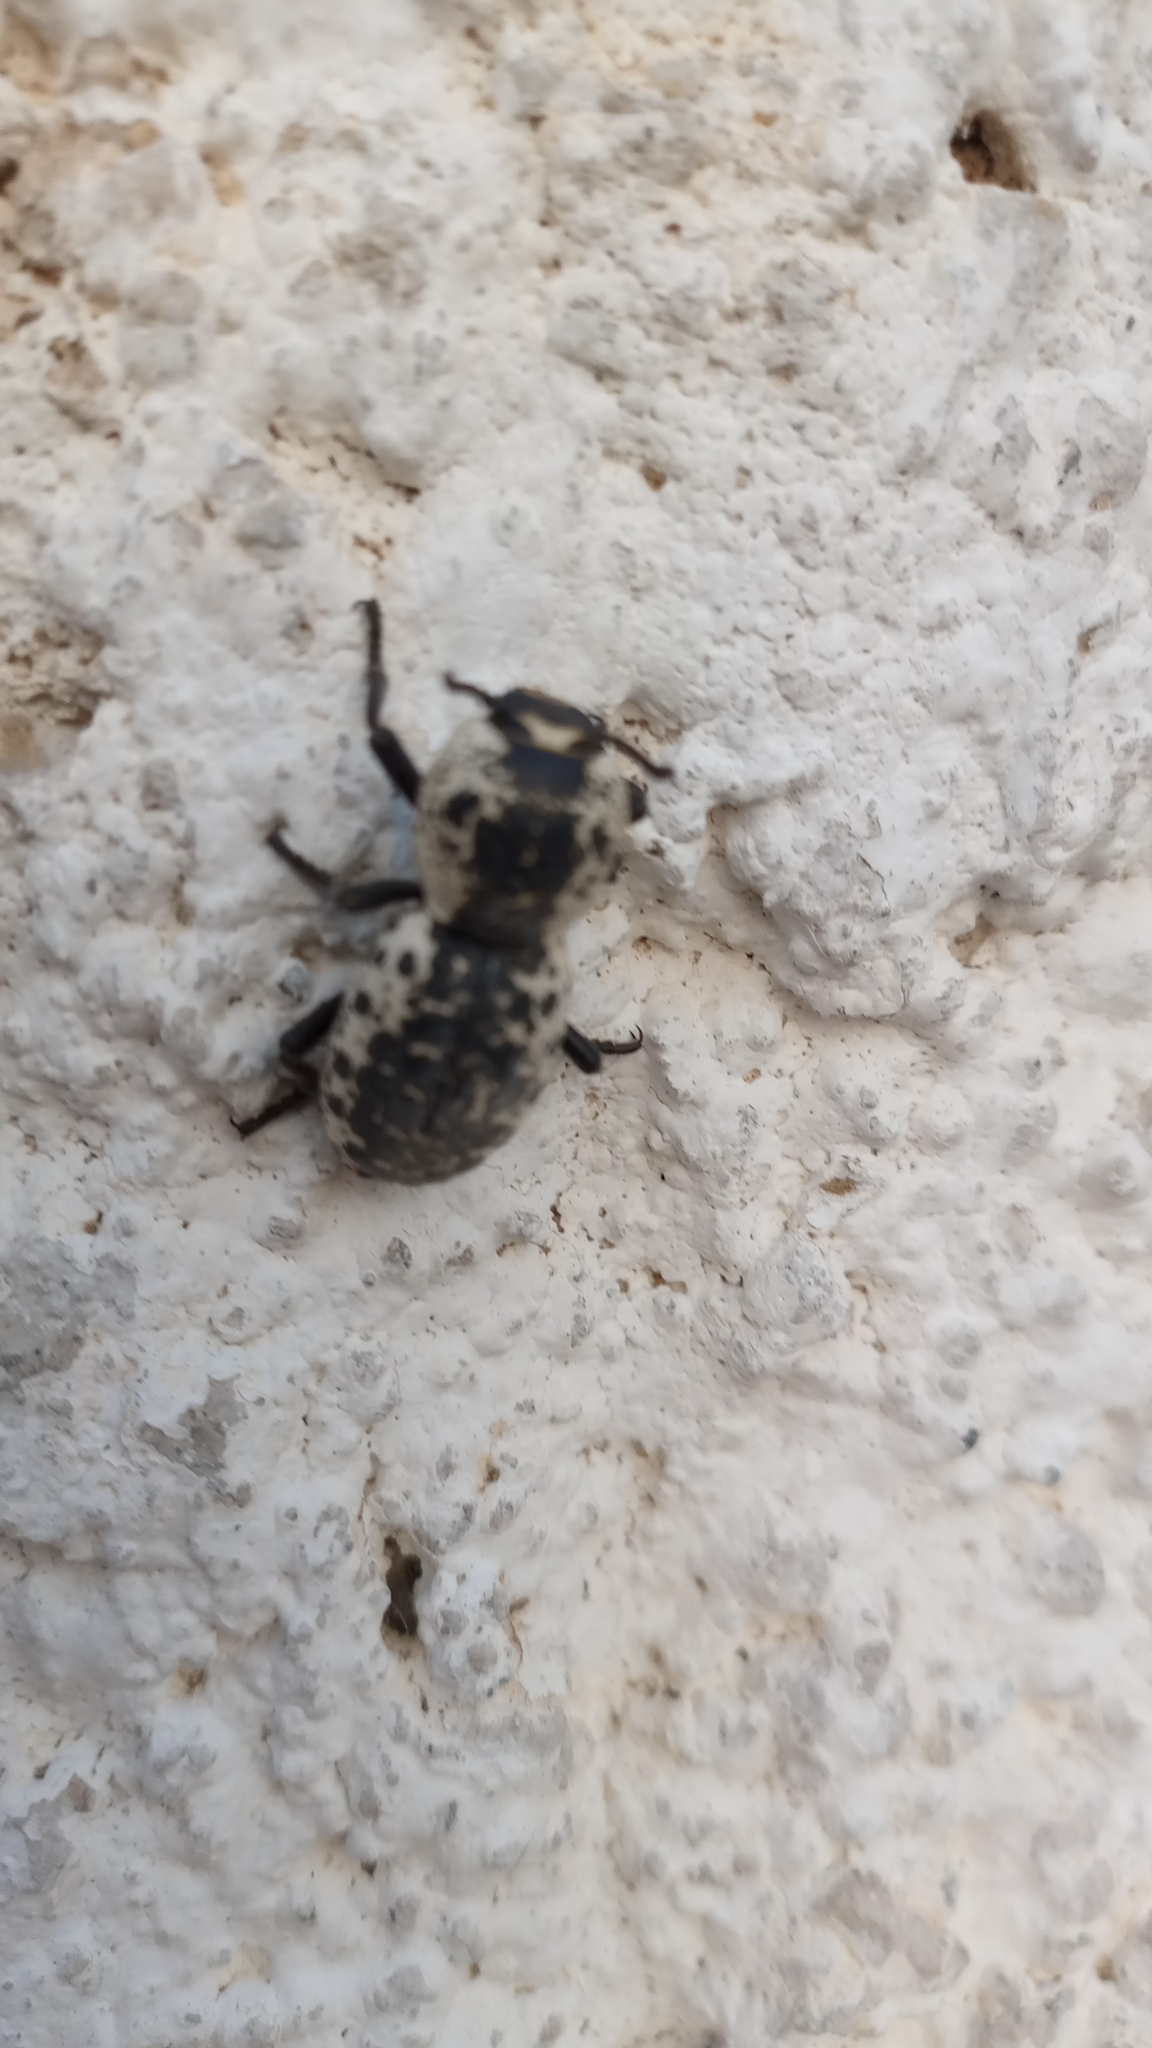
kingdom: Animalia
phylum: Arthropoda
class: Insecta
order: Coleoptera
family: Zopheridae
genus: Zopherus
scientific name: Zopherus nodulosus
